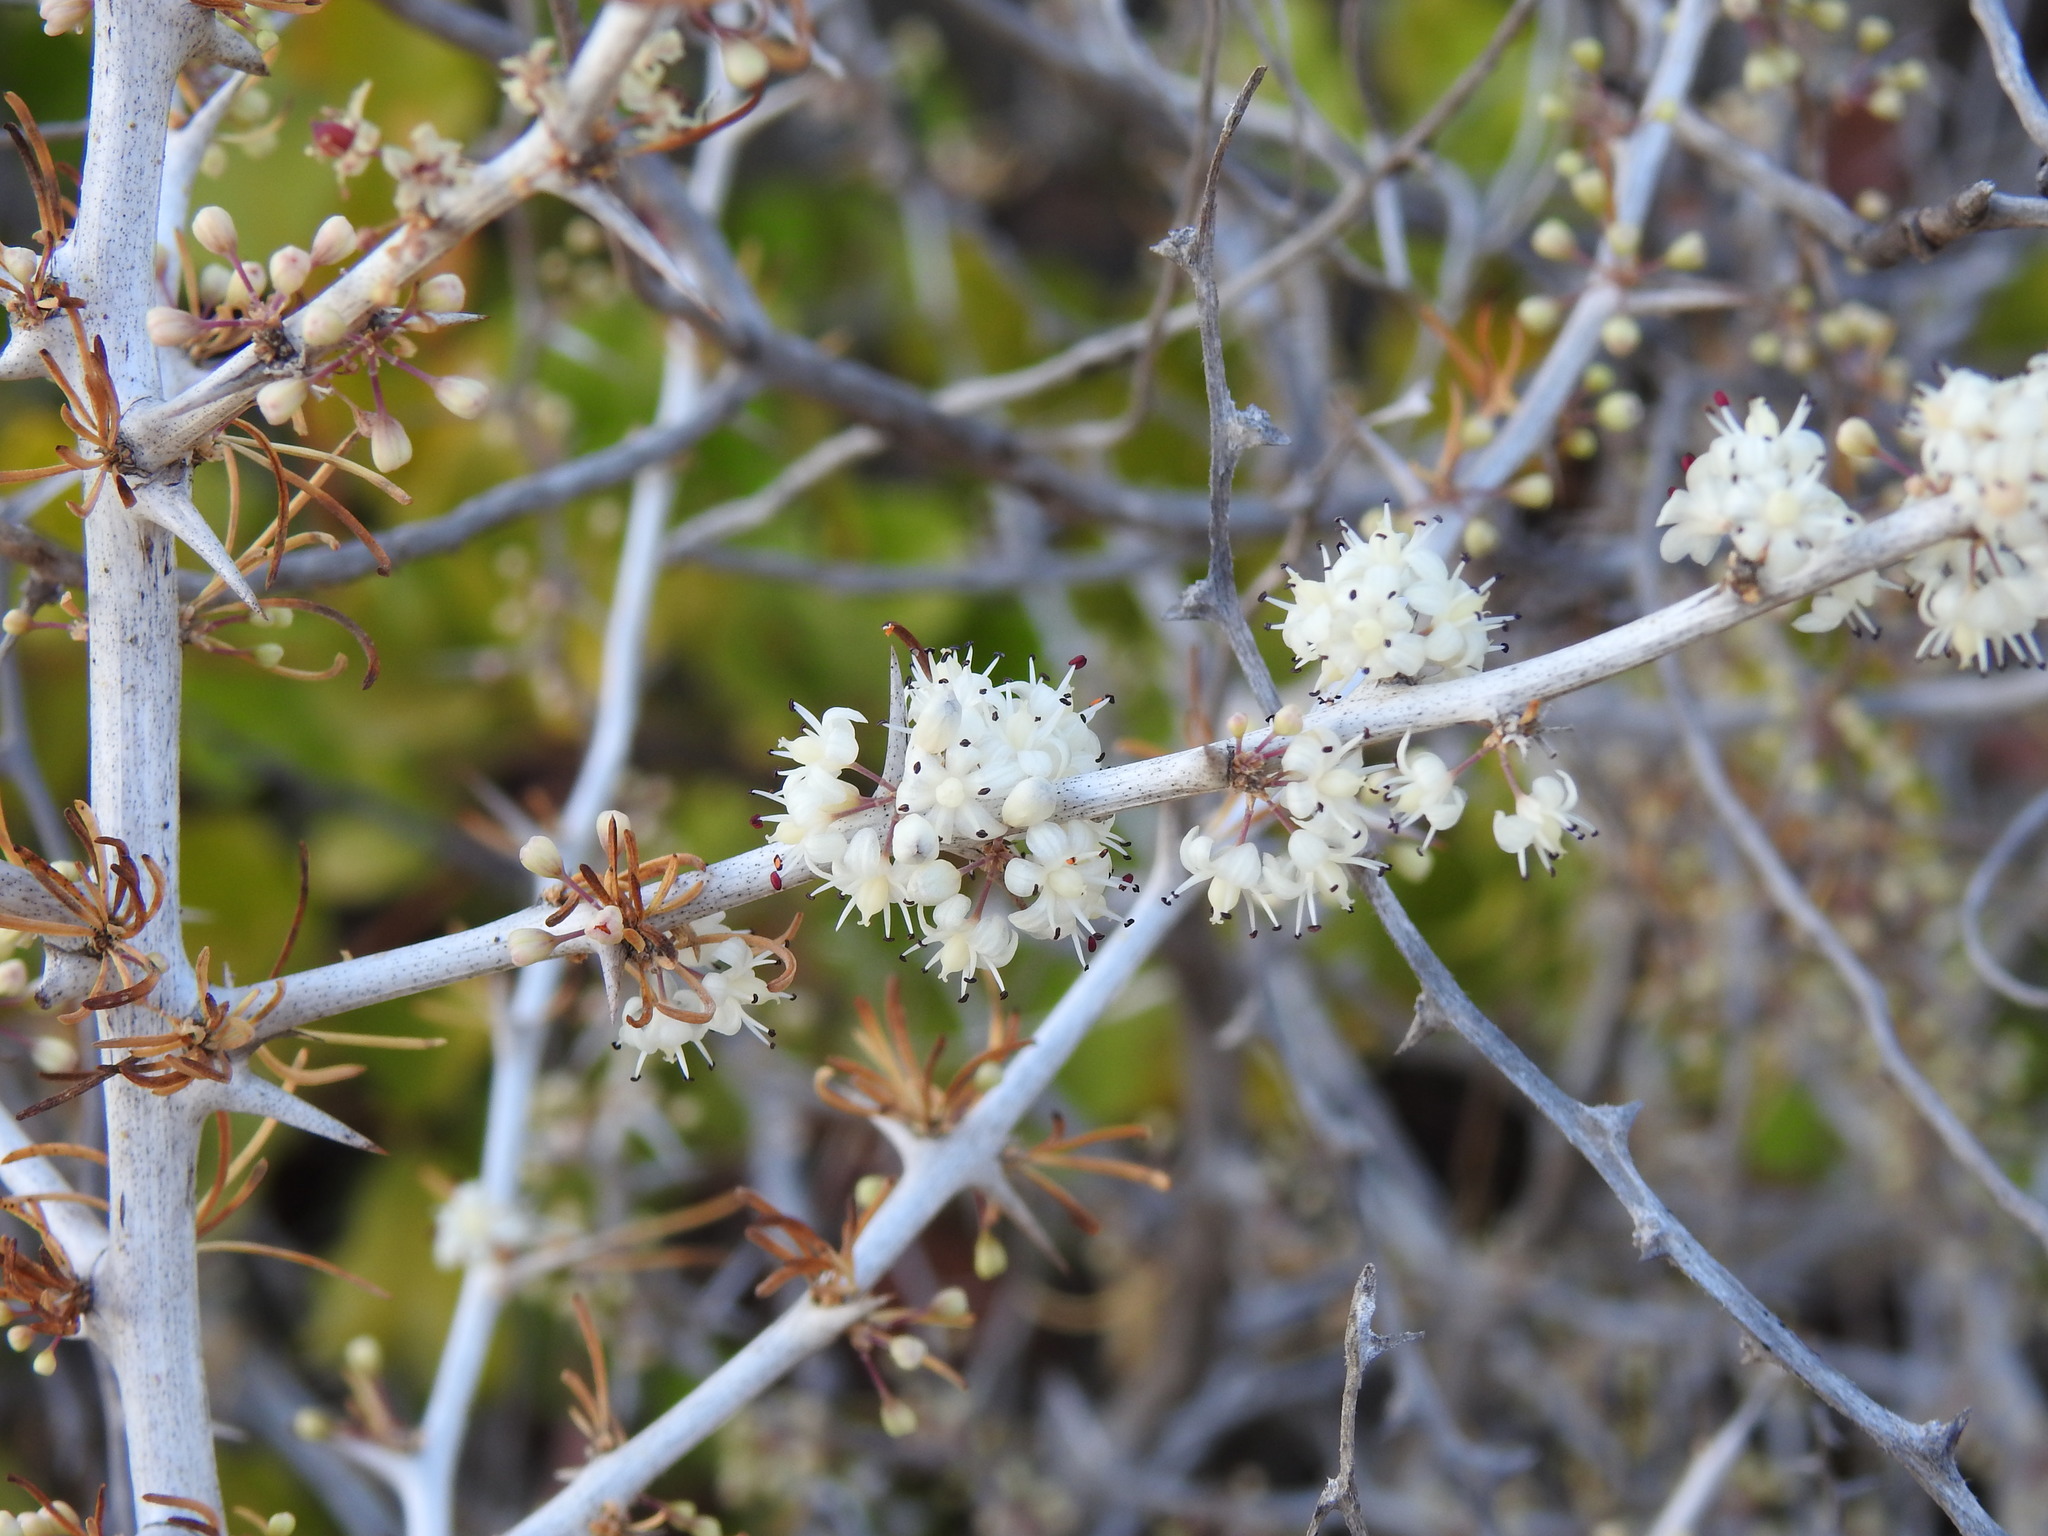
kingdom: Plantae
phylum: Tracheophyta
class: Liliopsida
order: Asparagales
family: Asparagaceae
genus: Asparagus
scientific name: Asparagus albus
